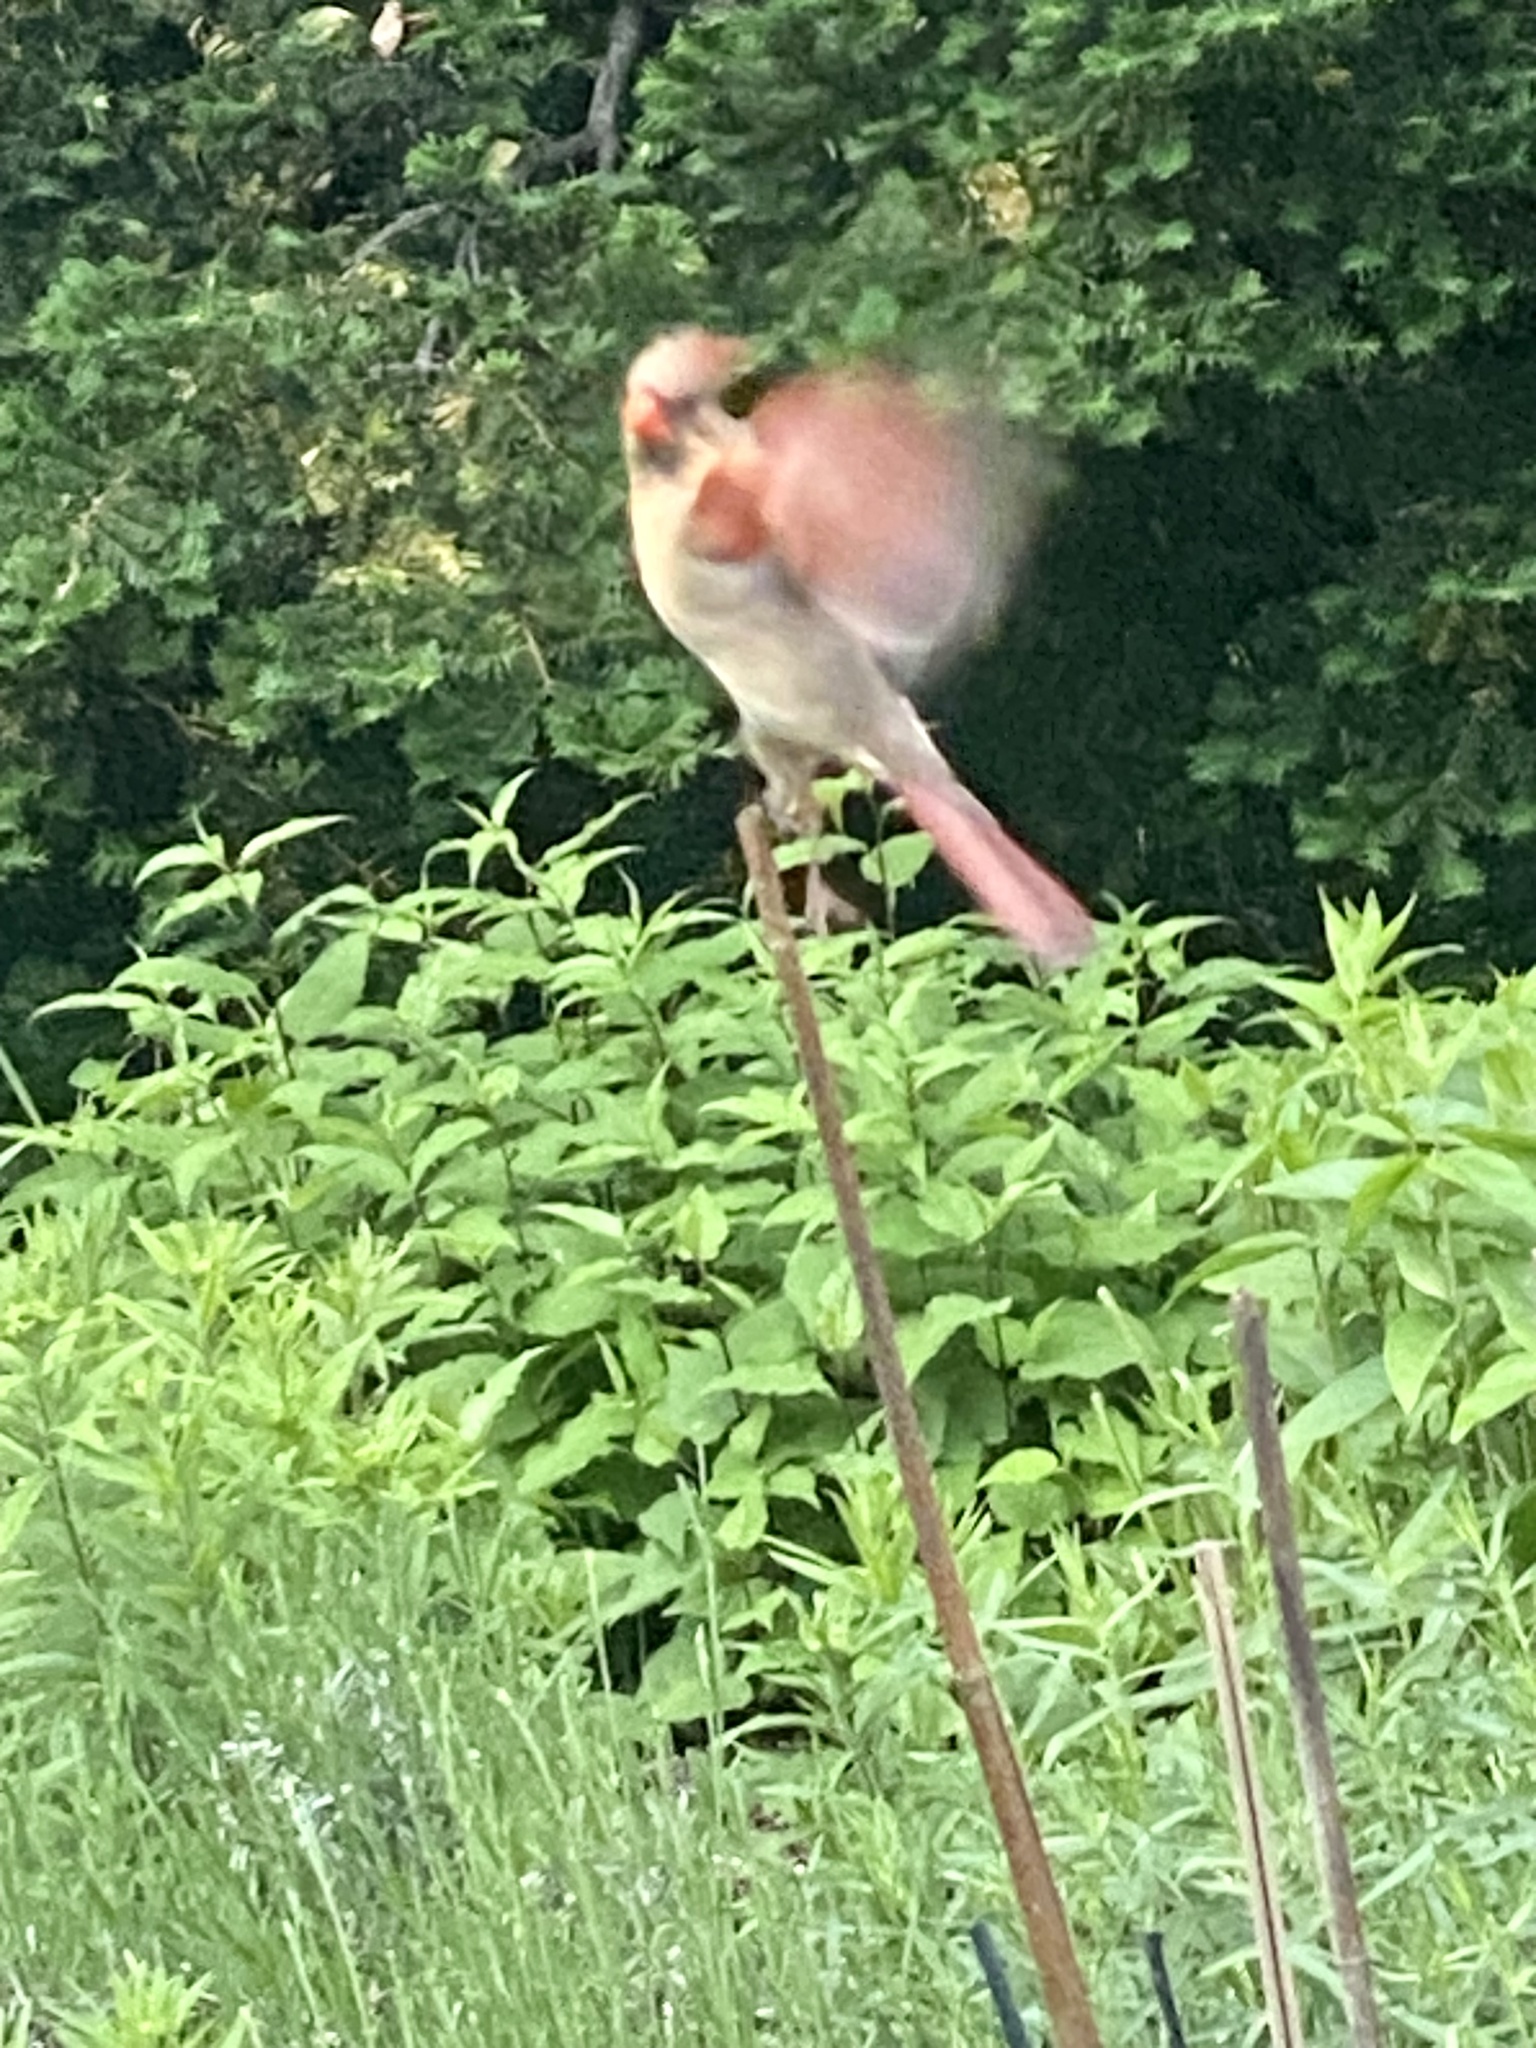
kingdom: Animalia
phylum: Chordata
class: Aves
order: Passeriformes
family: Cardinalidae
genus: Cardinalis
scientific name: Cardinalis cardinalis
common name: Northern cardinal
